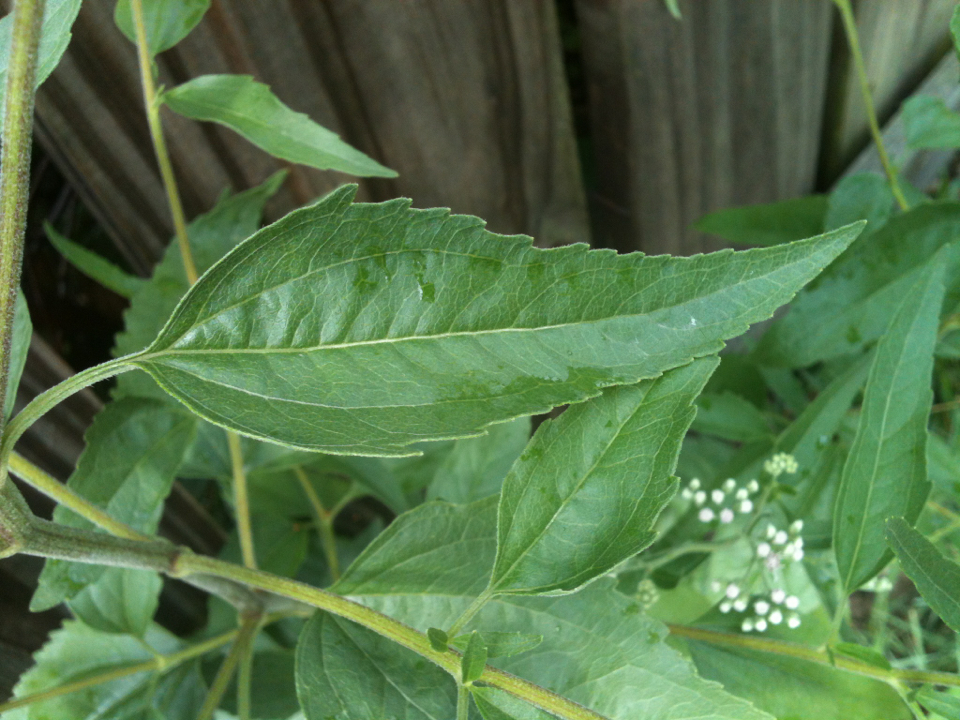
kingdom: Plantae
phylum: Tracheophyta
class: Magnoliopsida
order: Asterales
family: Asteraceae
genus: Eupatorium
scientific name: Eupatorium serotinum
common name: Late boneset
